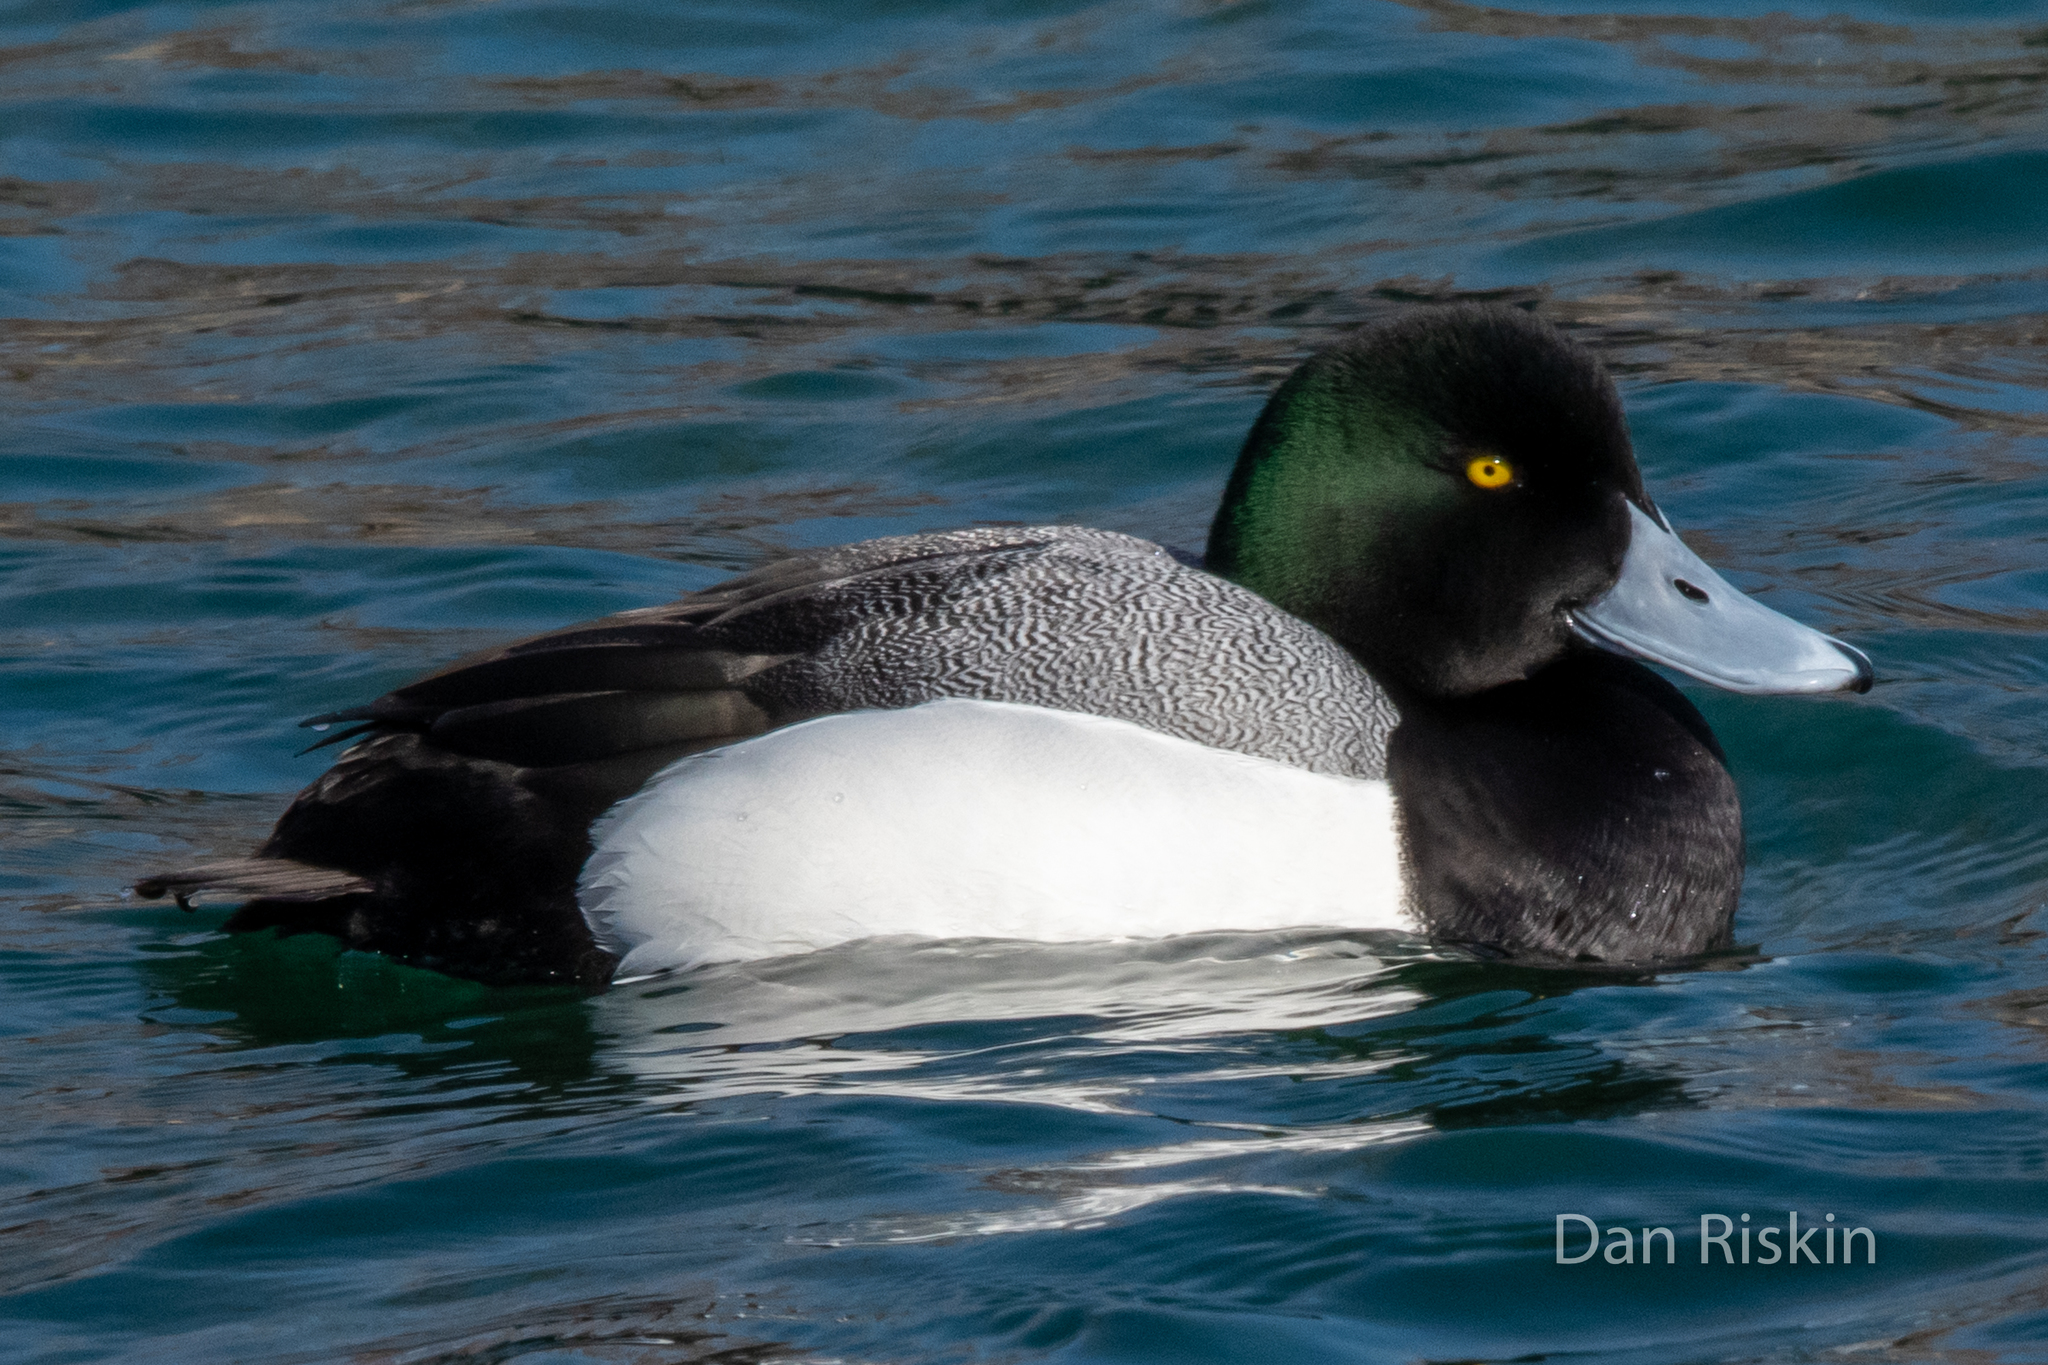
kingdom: Animalia
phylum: Chordata
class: Aves
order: Anseriformes
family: Anatidae
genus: Aythya
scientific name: Aythya marila
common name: Greater scaup
